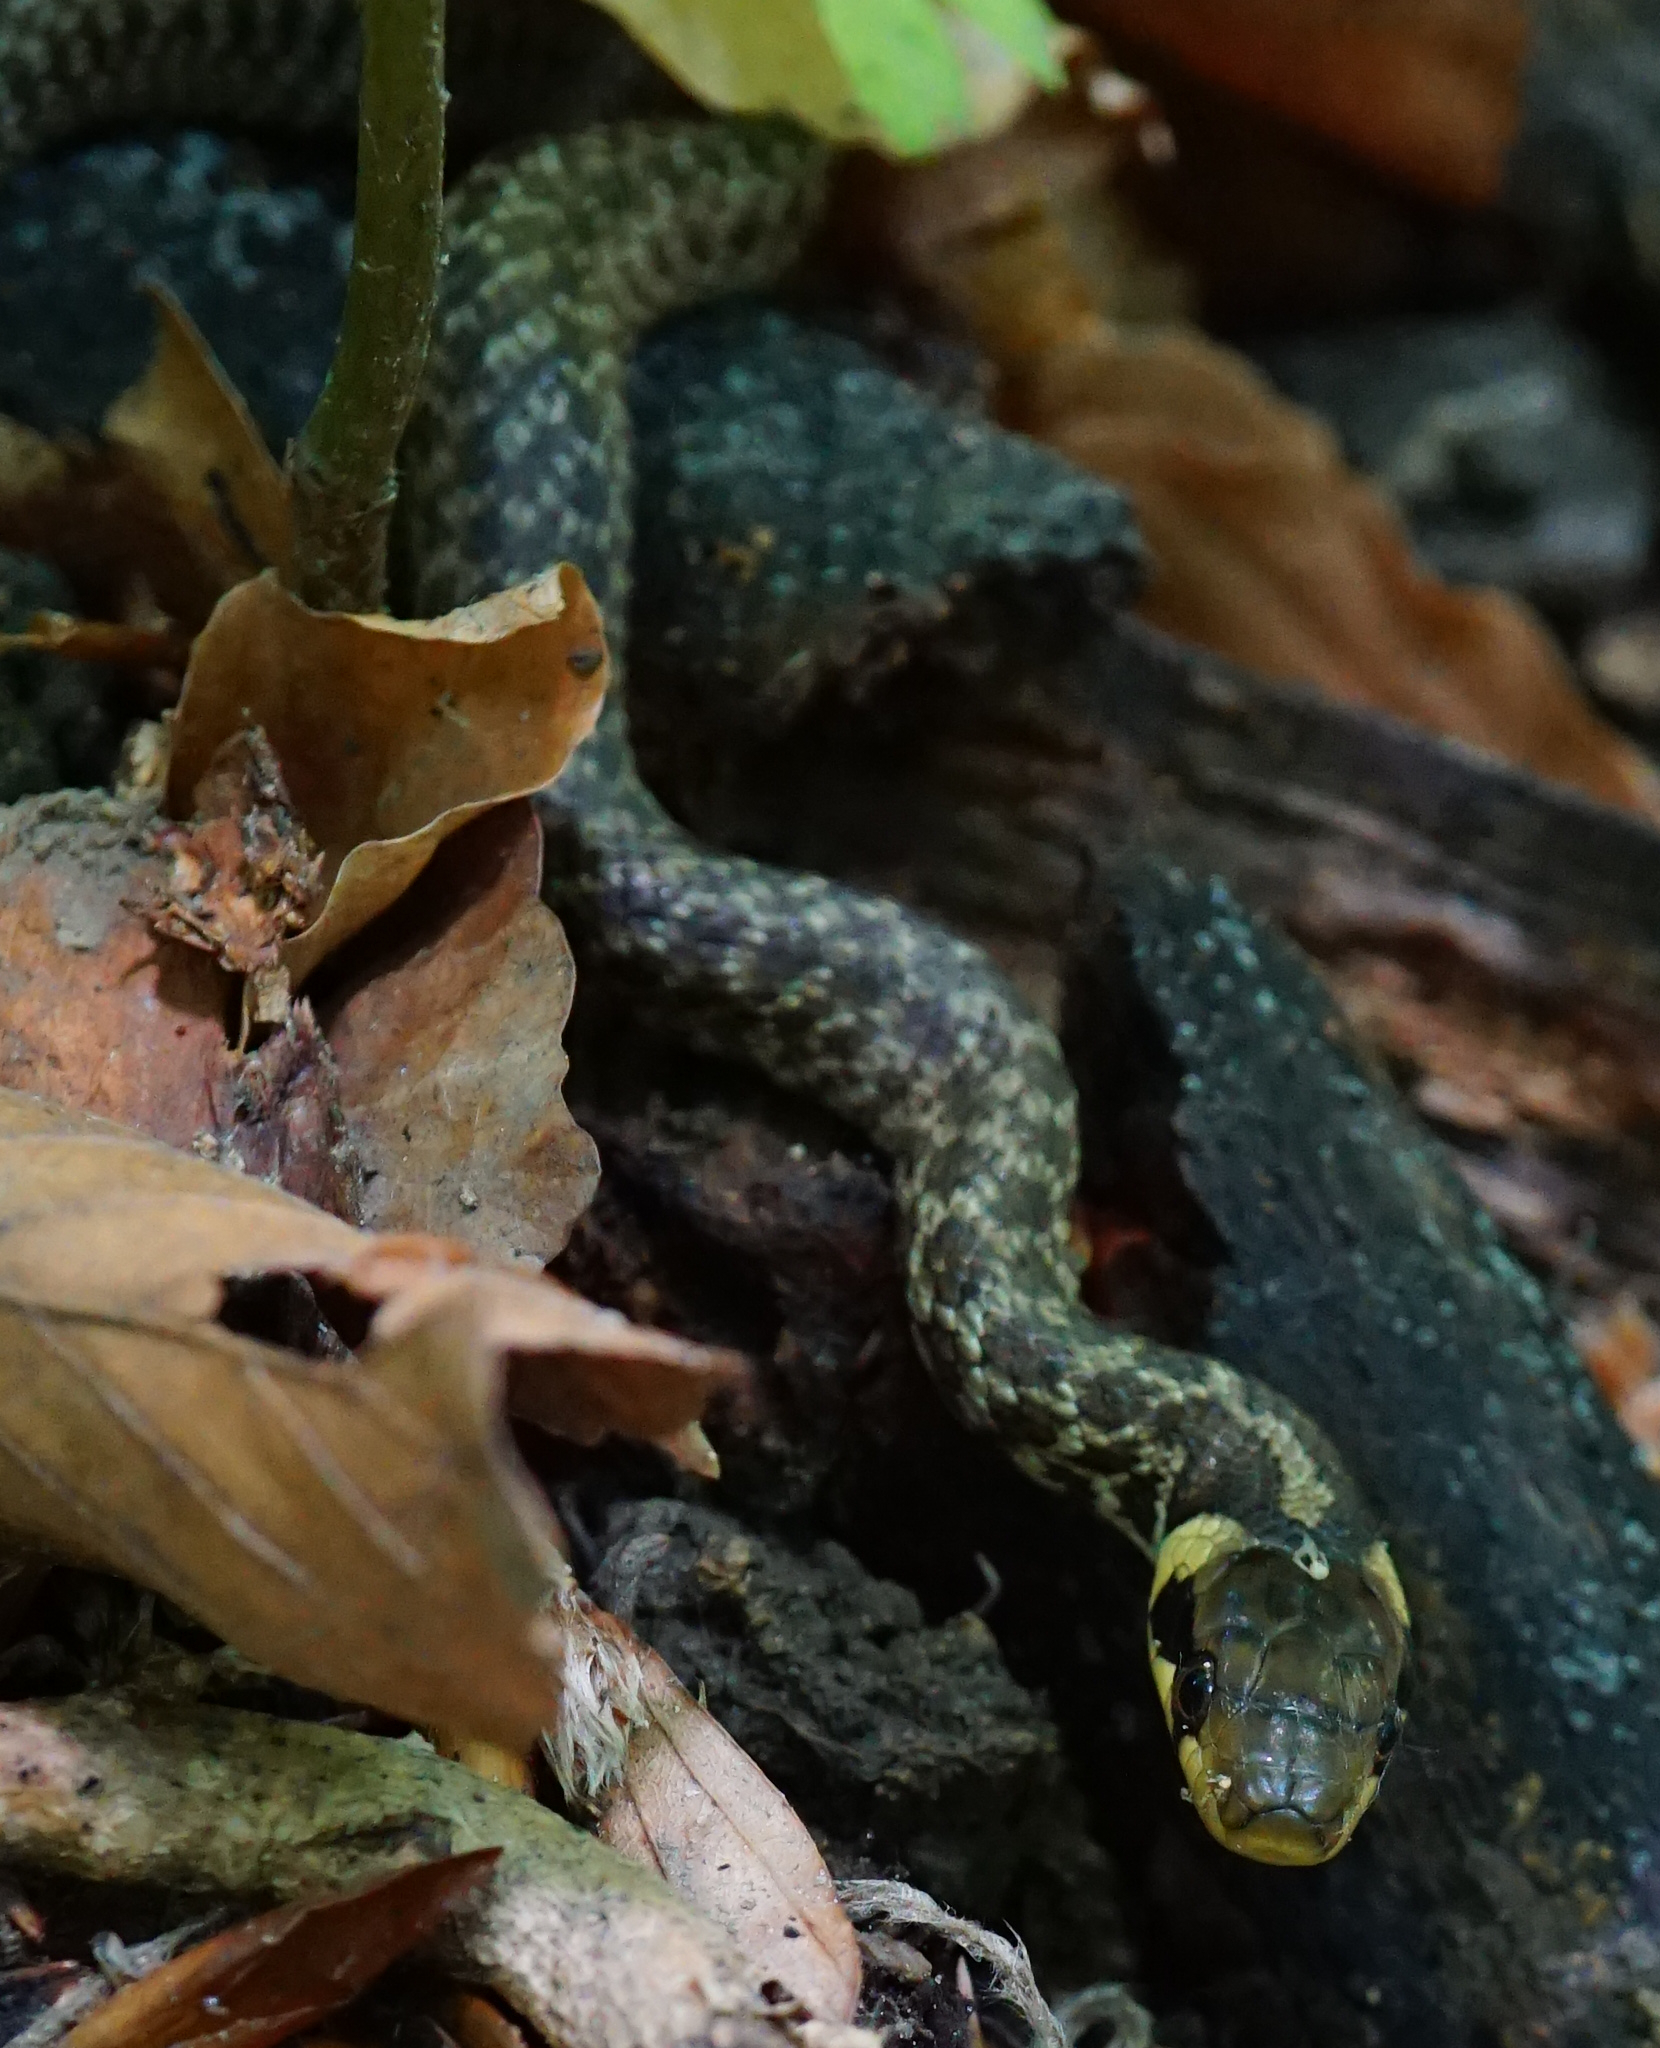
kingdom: Animalia
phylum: Chordata
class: Squamata
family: Colubridae
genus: Zamenis
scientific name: Zamenis longissimus
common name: Aesculapean snake
